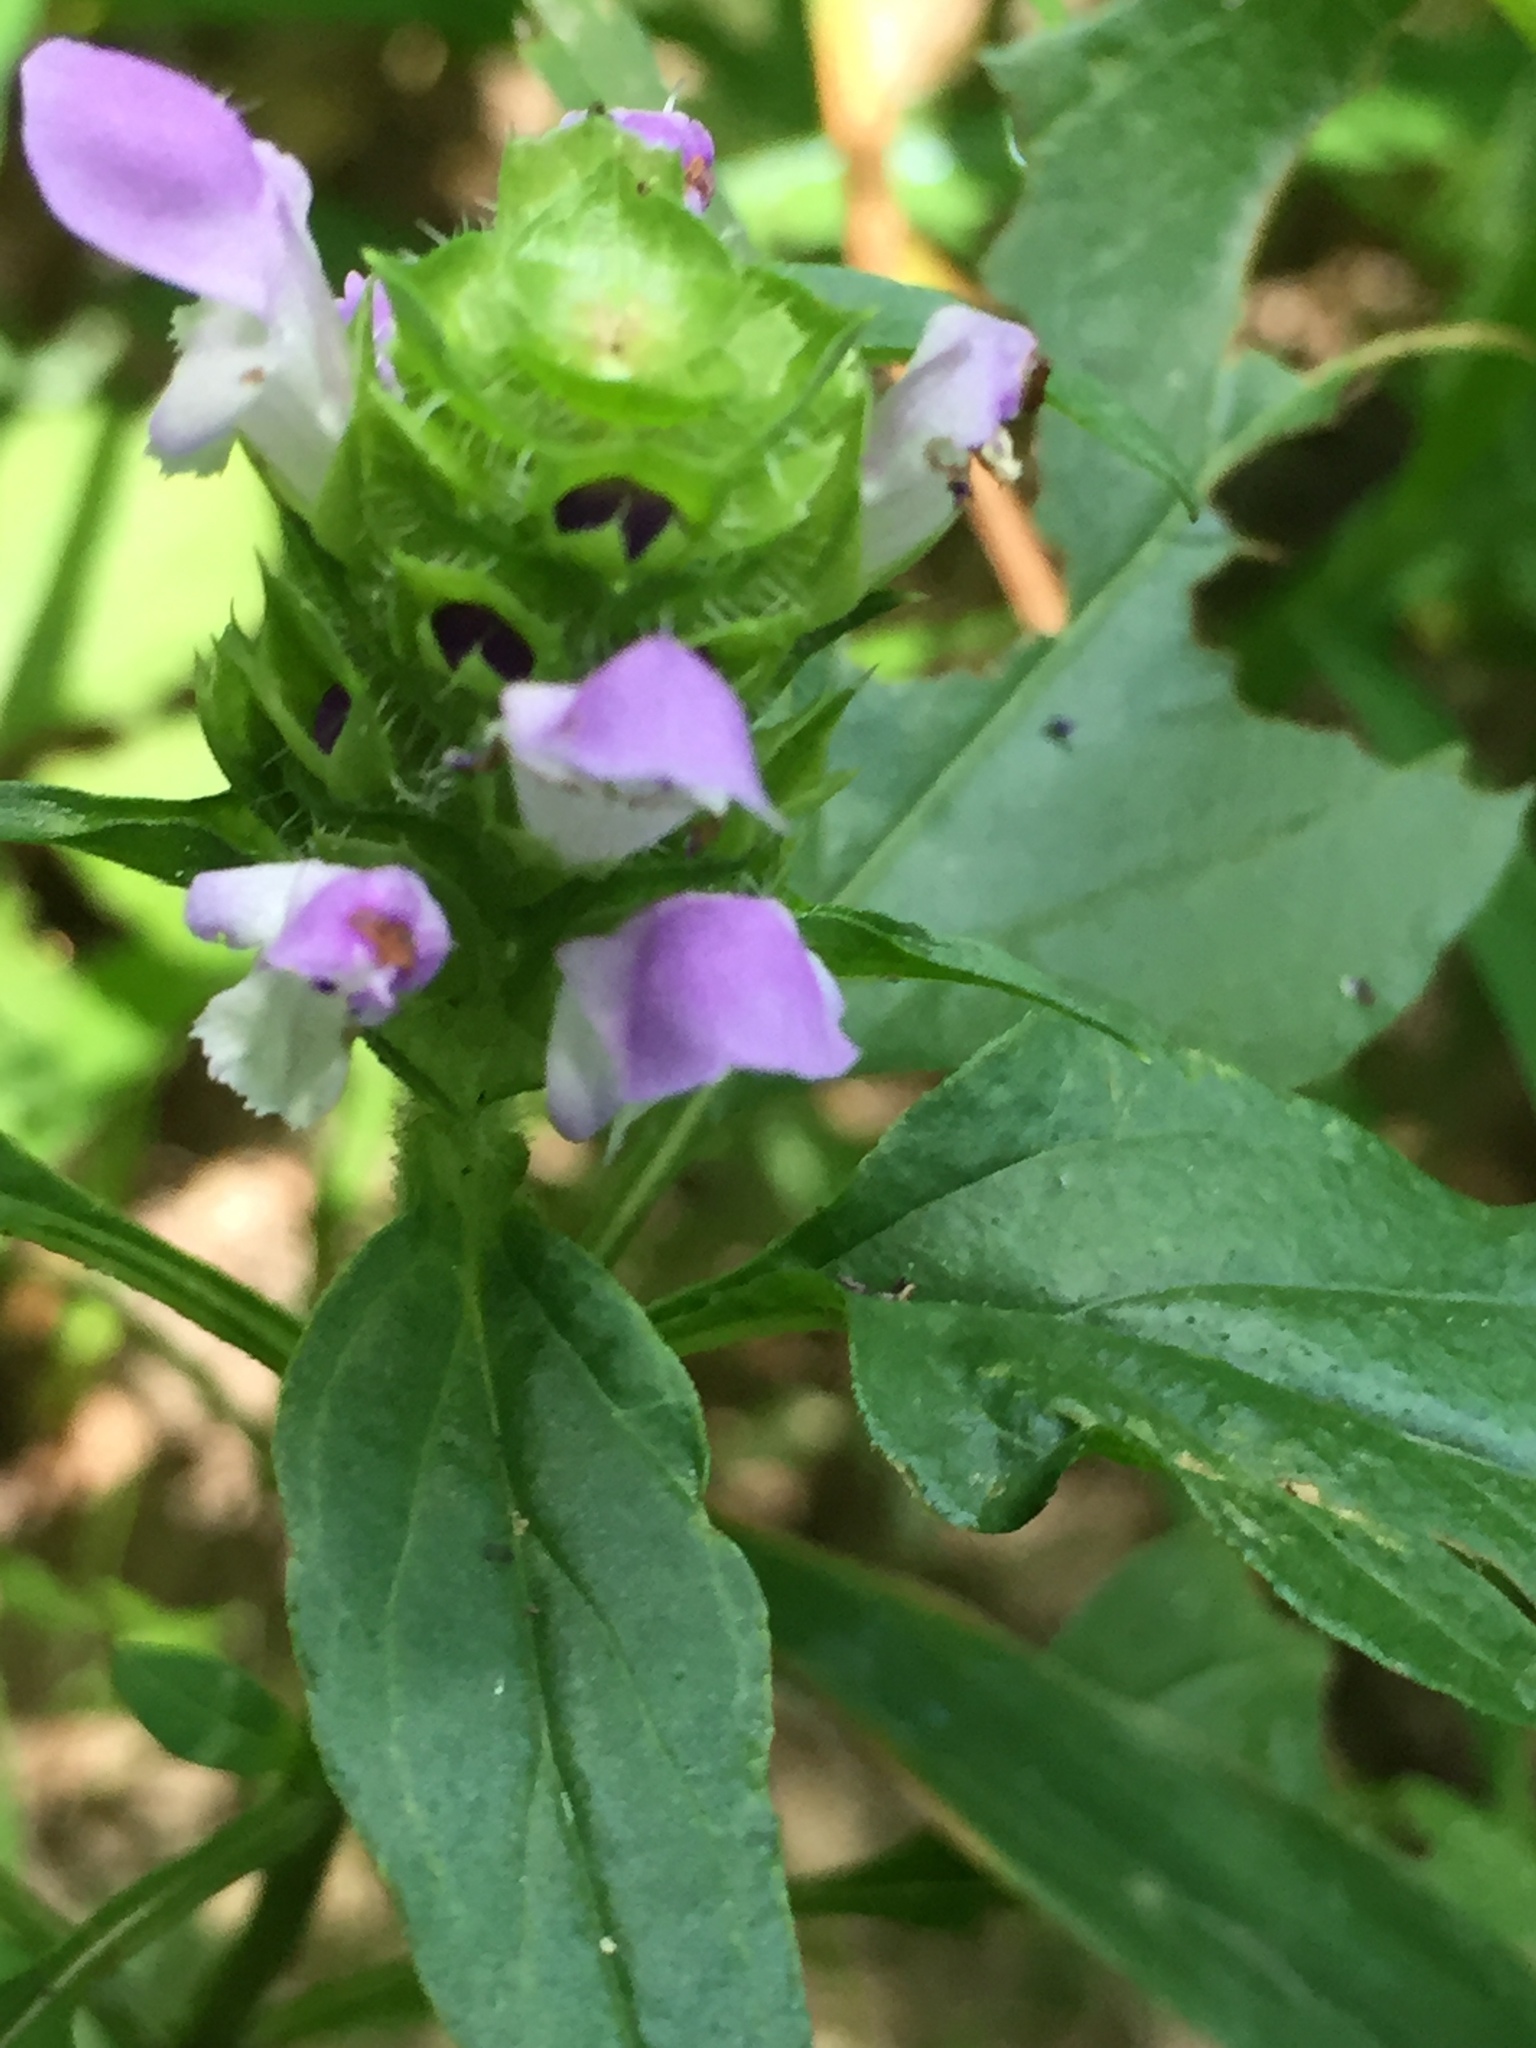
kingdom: Plantae
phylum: Tracheophyta
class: Magnoliopsida
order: Lamiales
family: Lamiaceae
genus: Prunella
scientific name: Prunella vulgaris
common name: Heal-all
